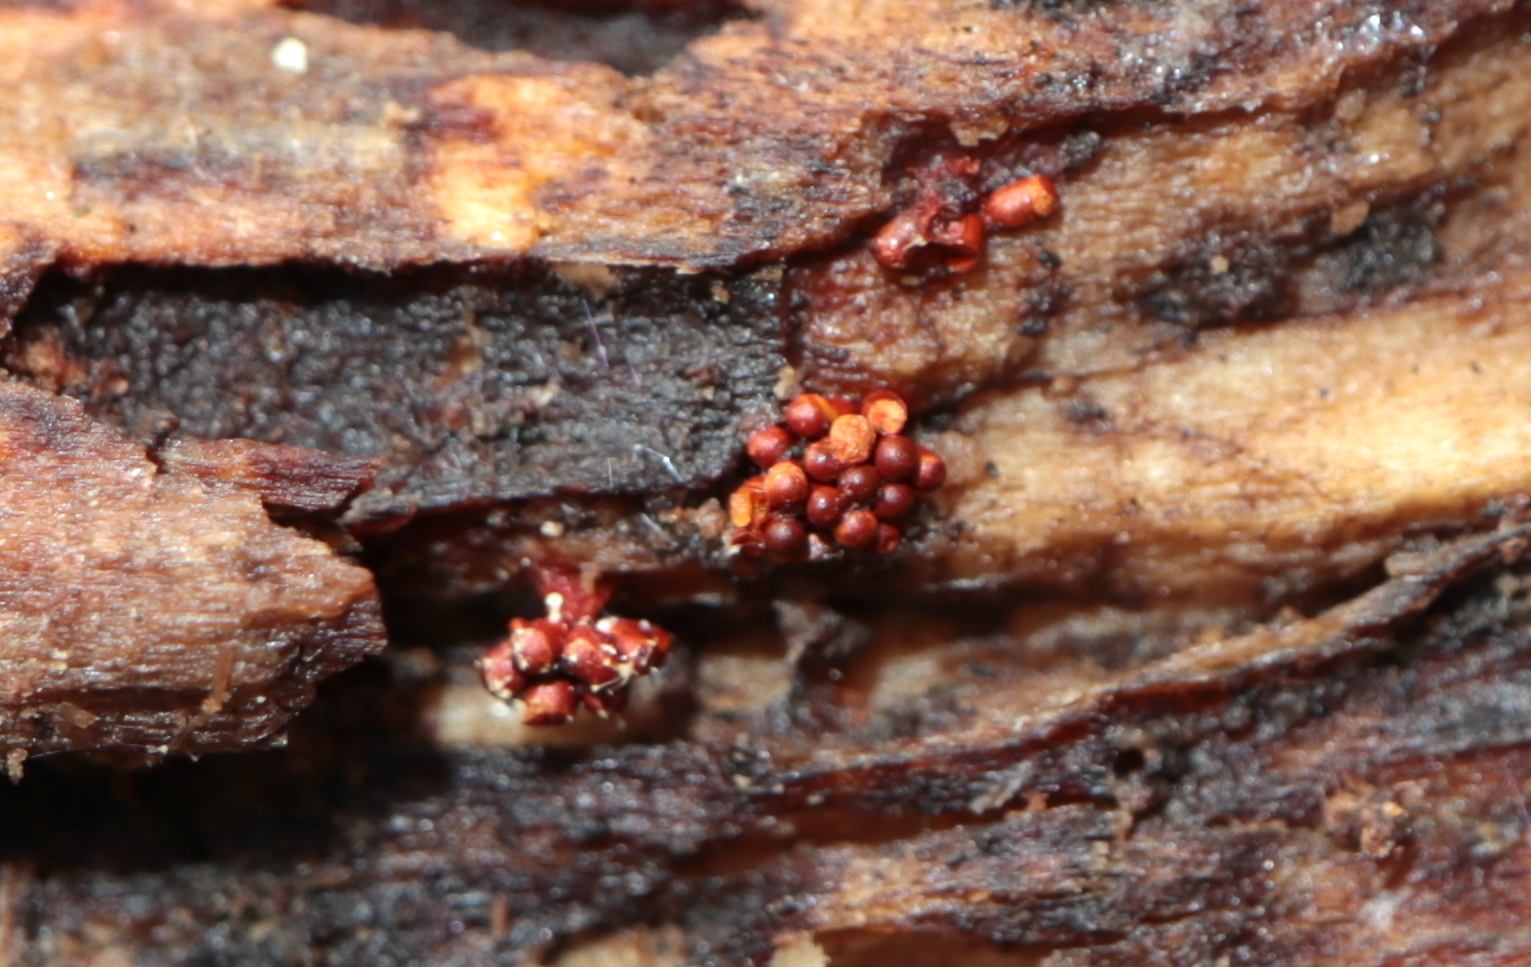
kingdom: Fungi
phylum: Ascomycota
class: Sordariomycetes
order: Hypocreales
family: Ophiocordycipitaceae
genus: Polycephalomyces
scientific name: Polycephalomyces tomentosus
